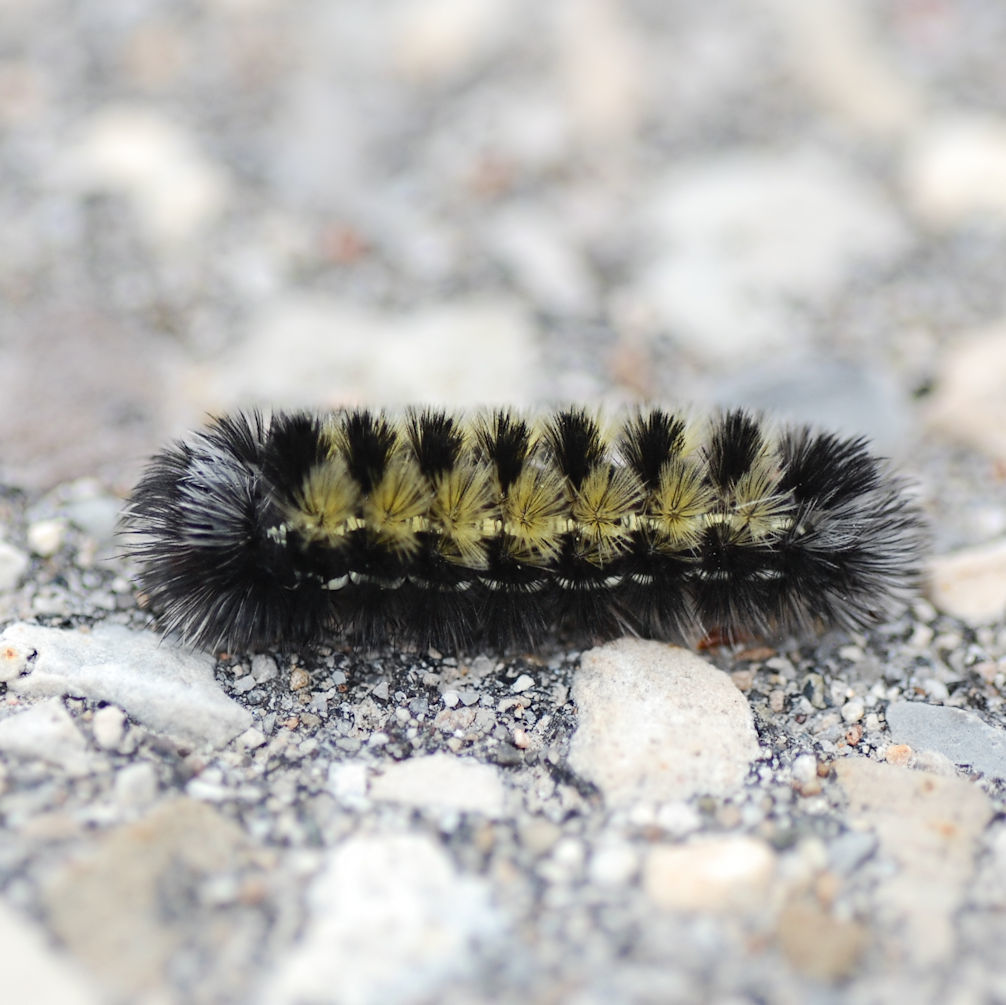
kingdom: Animalia
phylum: Arthropoda
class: Insecta
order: Lepidoptera
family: Erebidae
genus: Ctenucha
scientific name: Ctenucha virginica
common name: Virginia ctenucha moth
